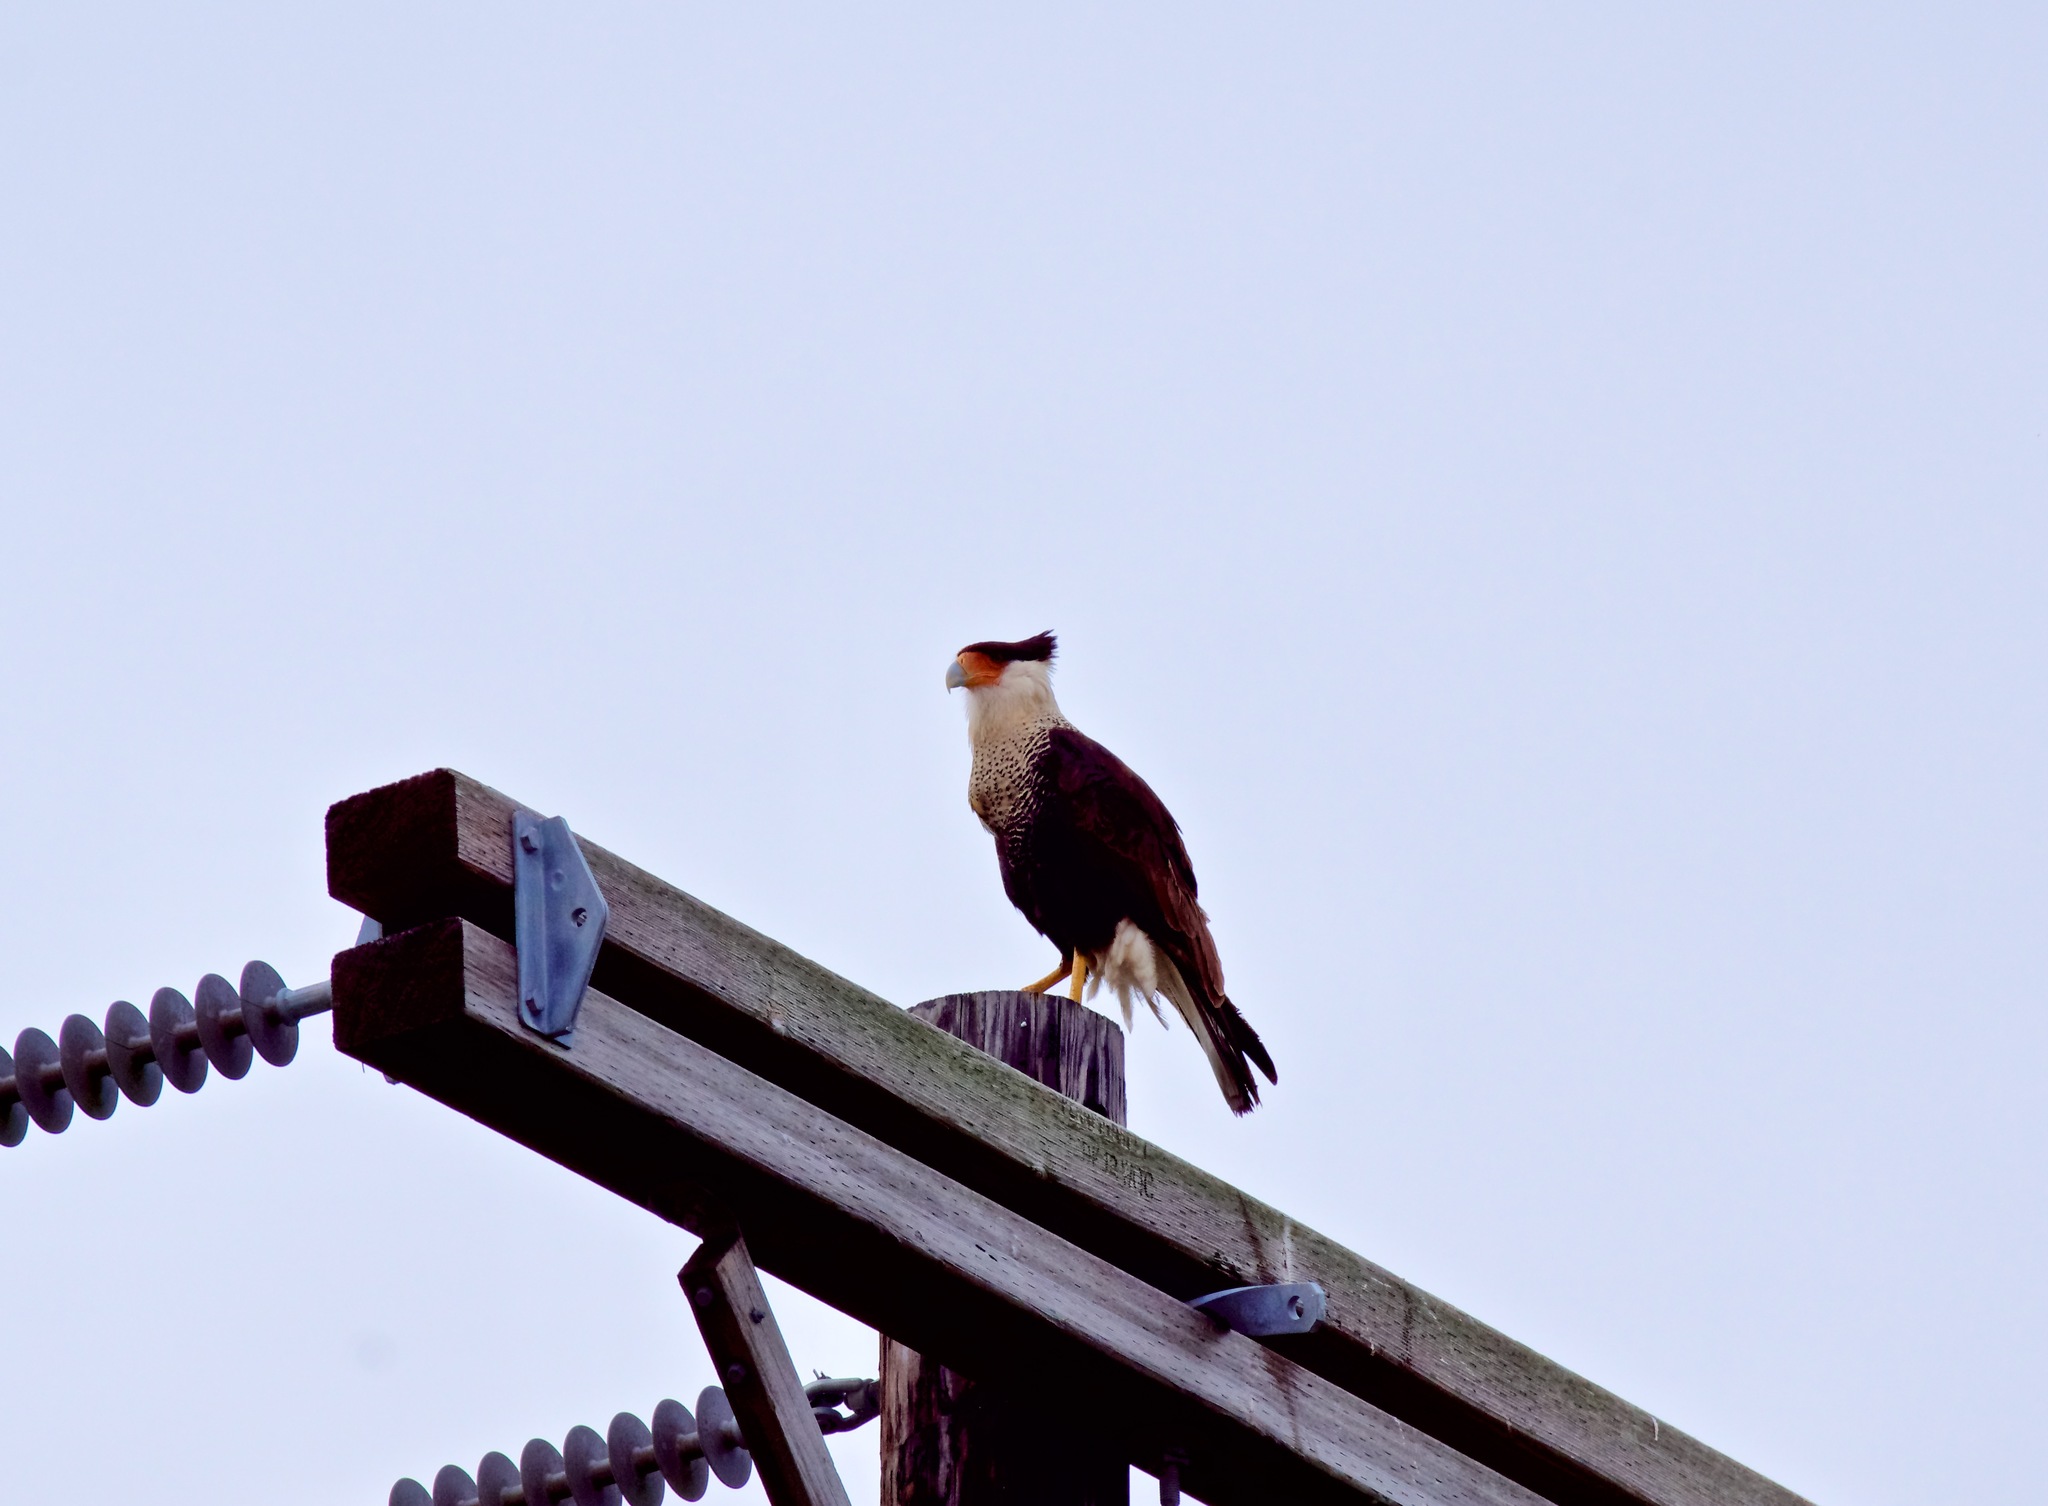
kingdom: Animalia
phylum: Chordata
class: Aves
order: Falconiformes
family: Falconidae
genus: Caracara
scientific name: Caracara plancus
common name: Southern caracara
